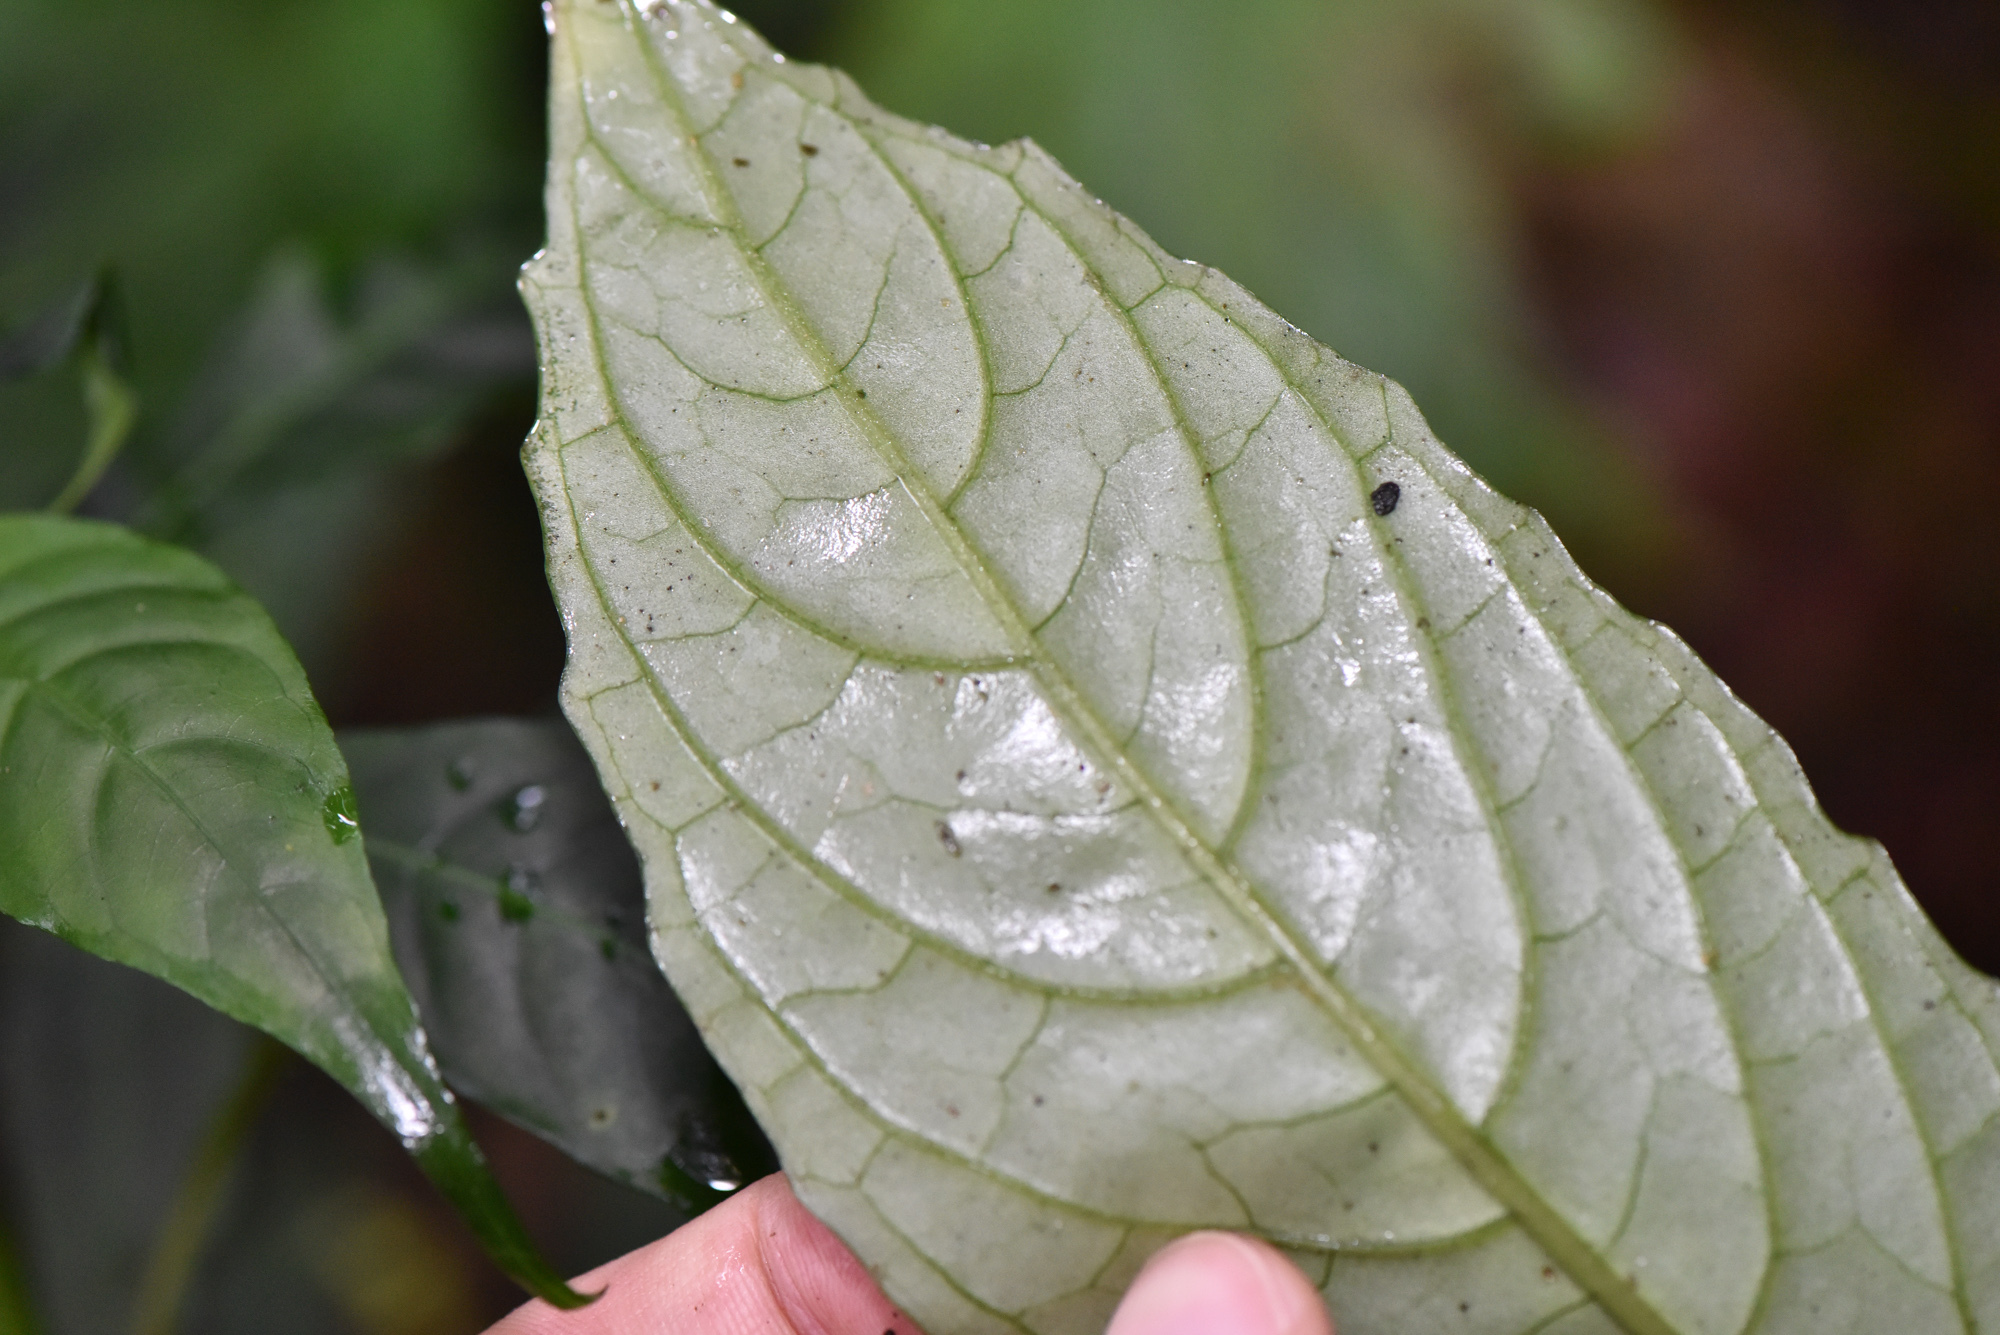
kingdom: Plantae
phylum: Tracheophyta
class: Magnoliopsida
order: Lamiales
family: Gesneriaceae
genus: Hemiboea
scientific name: Hemiboea bicornuta
